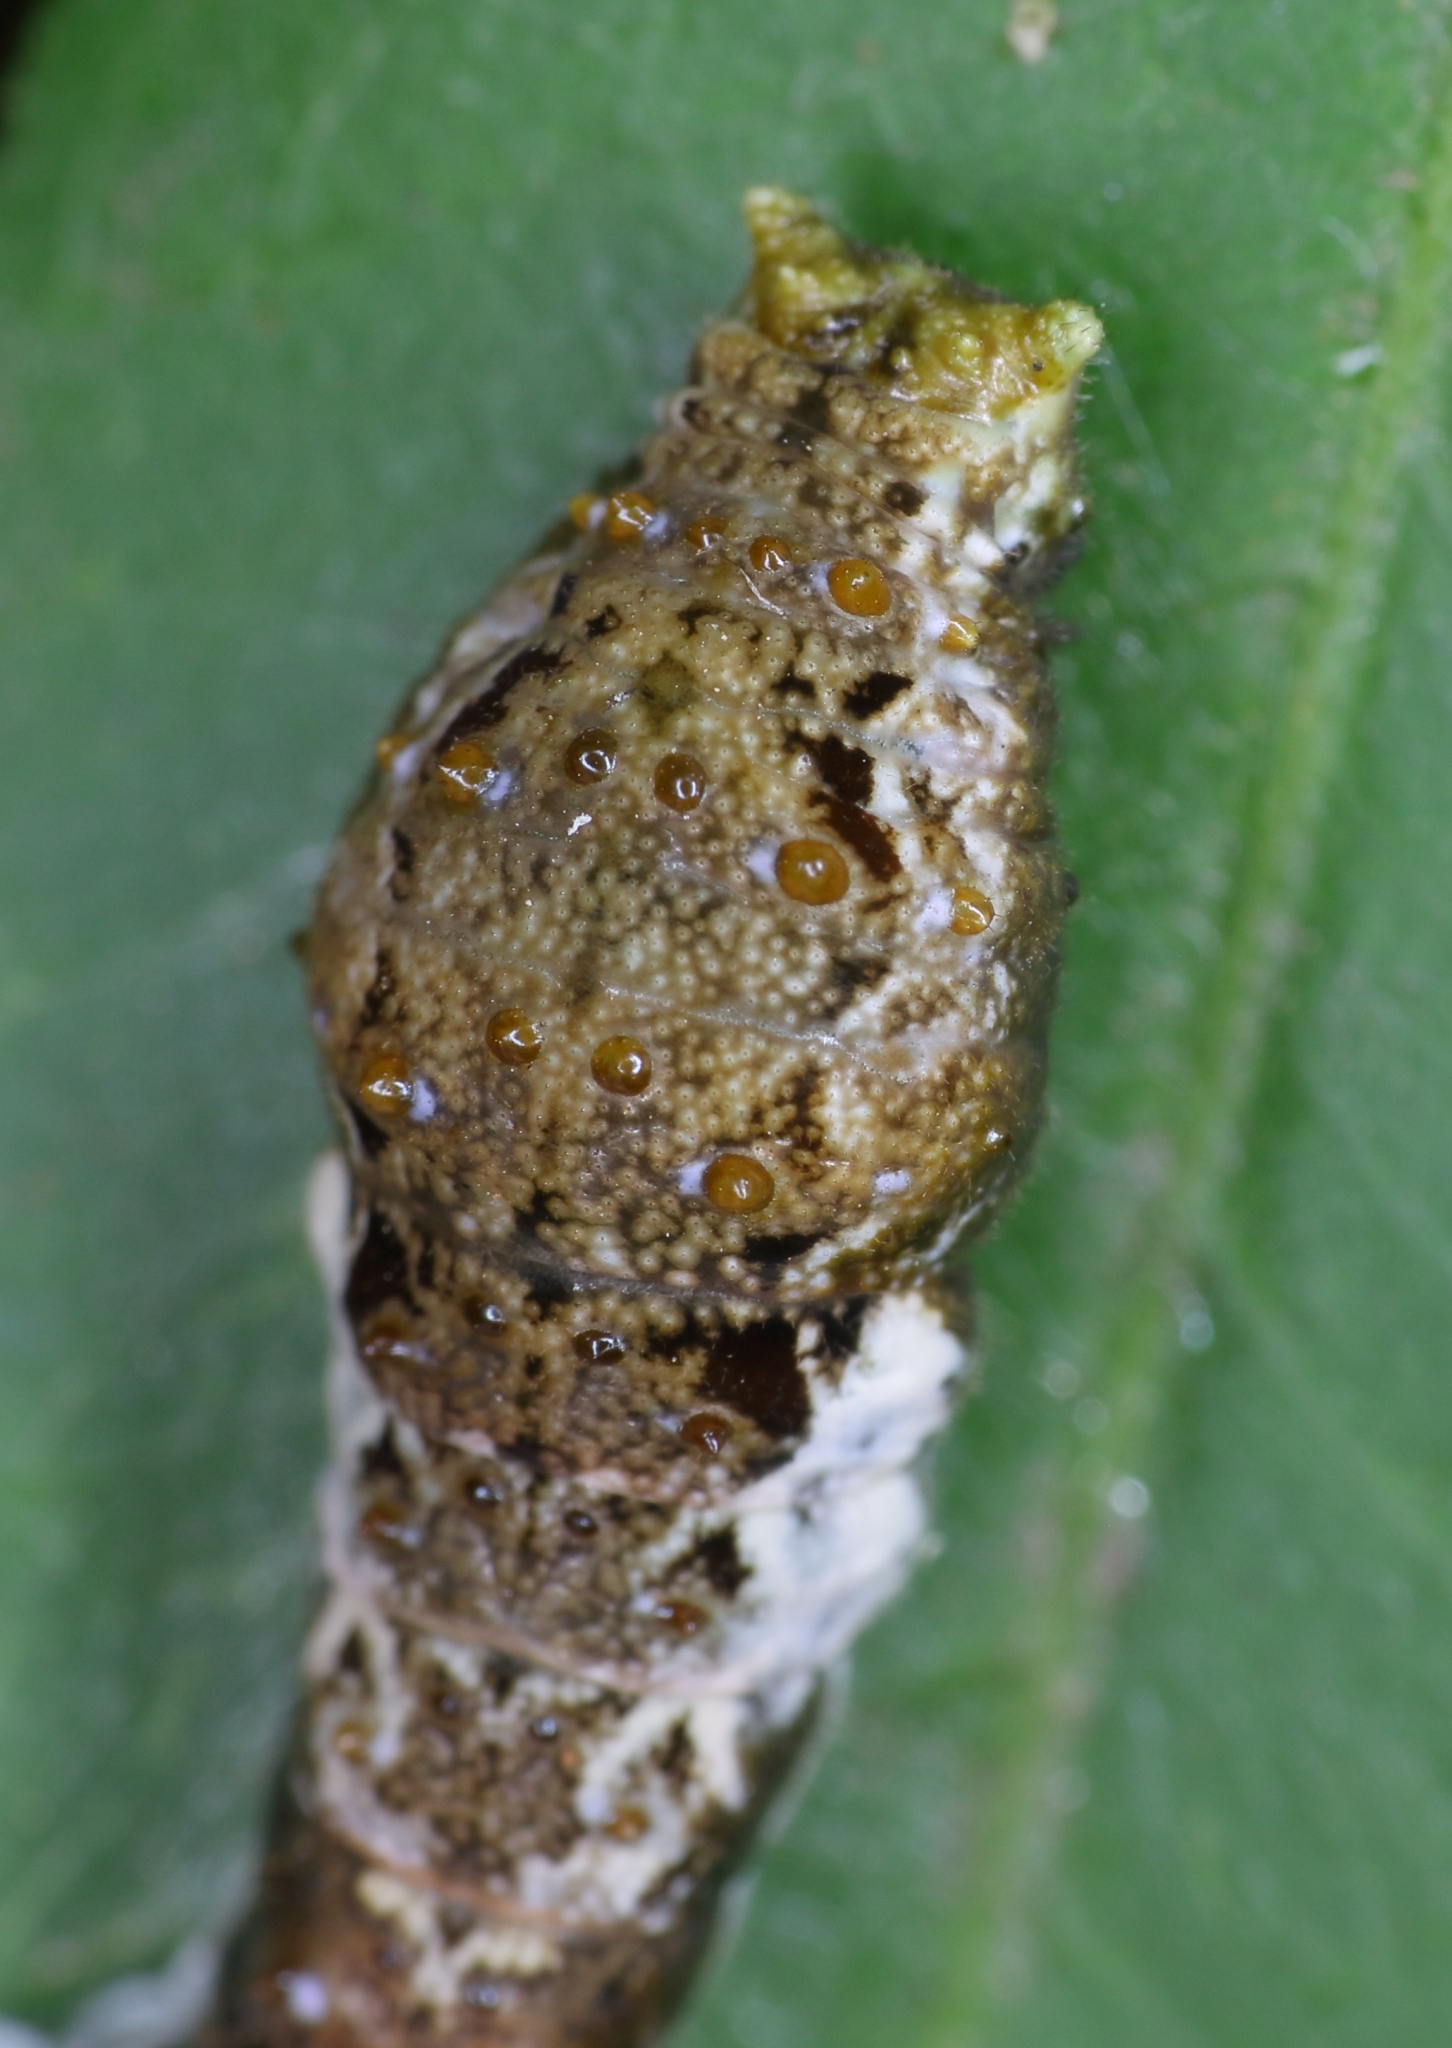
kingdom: Animalia
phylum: Arthropoda
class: Insecta
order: Lepidoptera
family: Papilionidae
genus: Papilio
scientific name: Papilio ophidicephalus
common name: Emperor swallowtail
